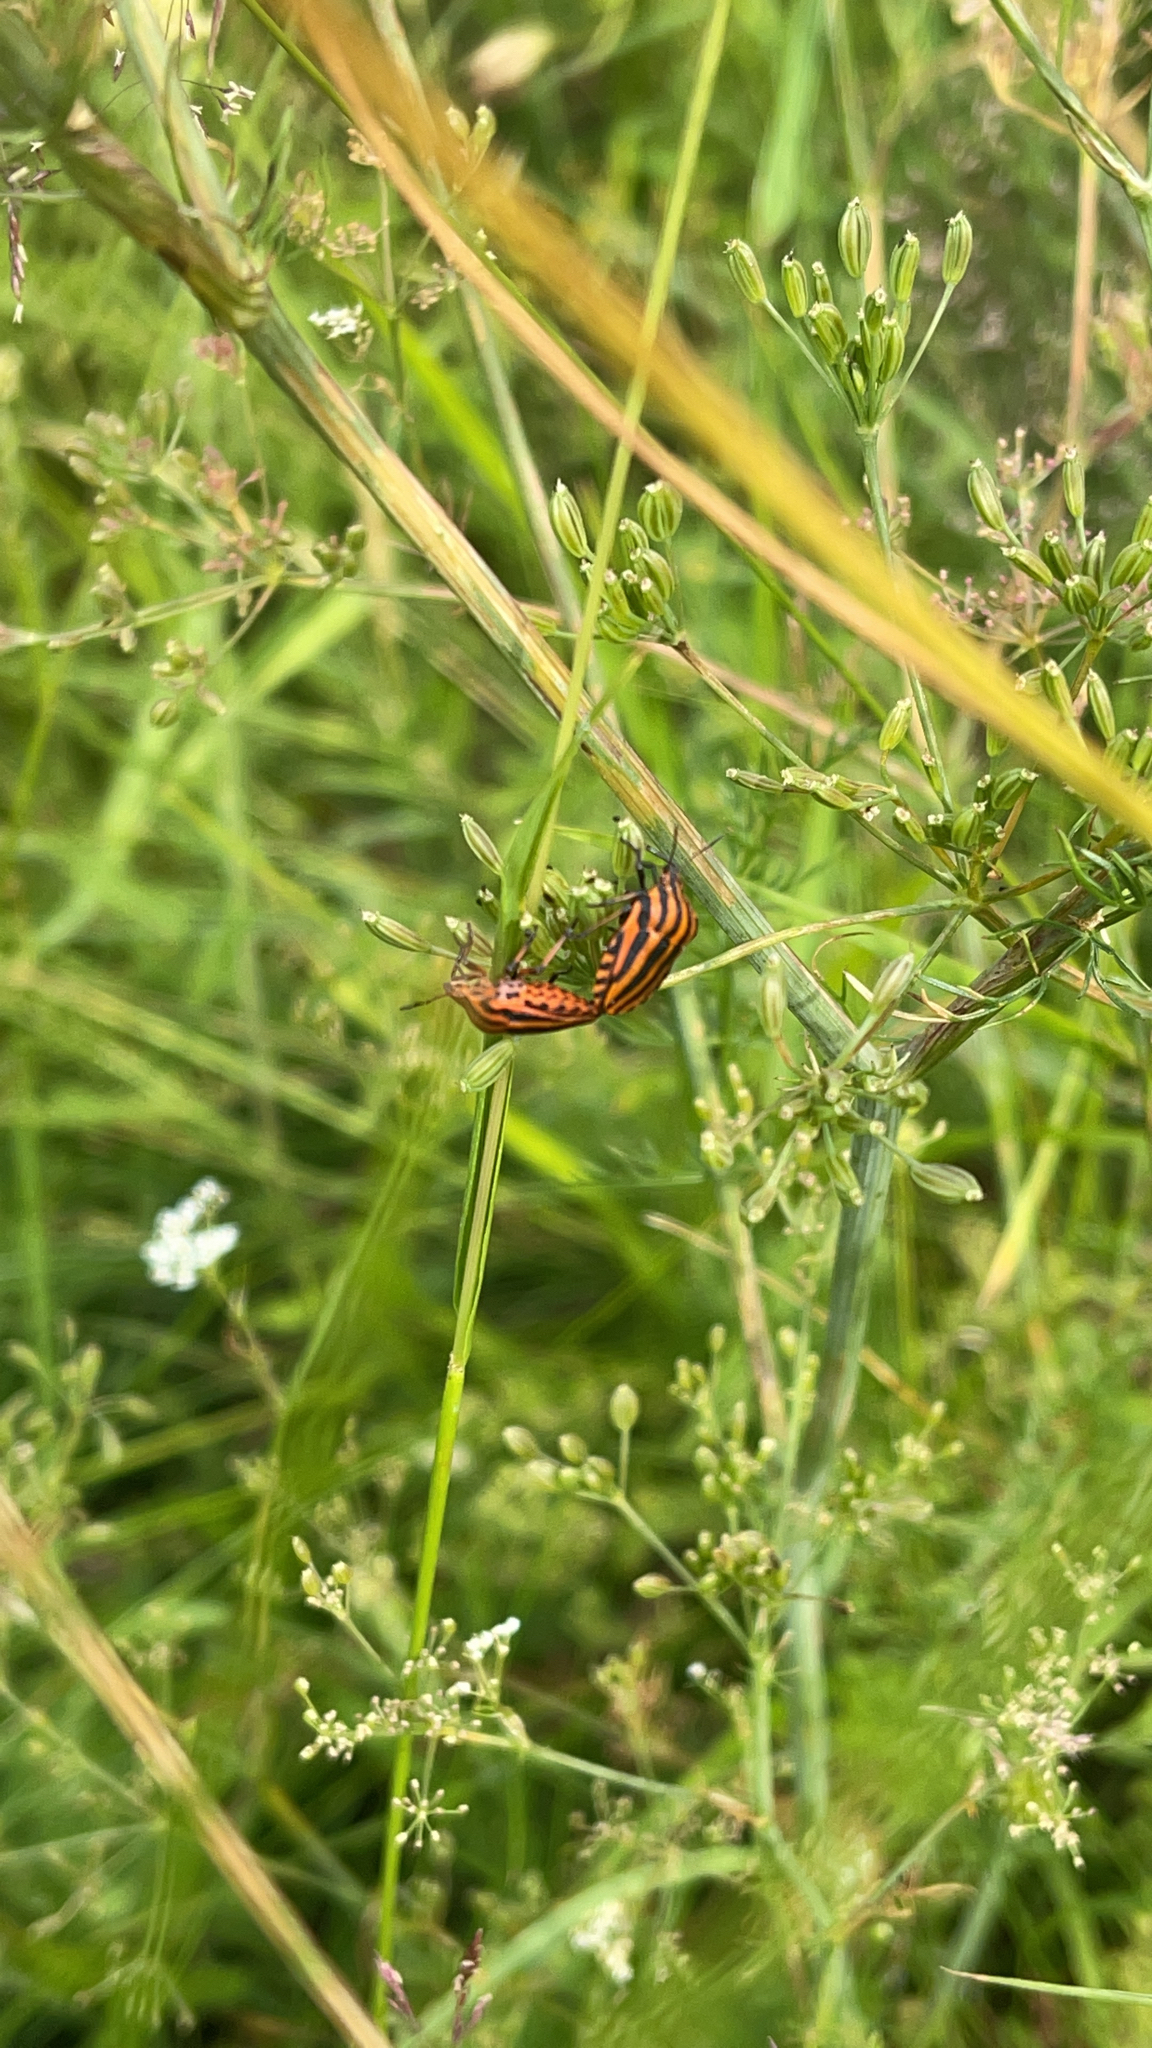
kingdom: Animalia
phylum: Arthropoda
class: Insecta
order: Hemiptera
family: Pentatomidae
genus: Graphosoma
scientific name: Graphosoma italicum
